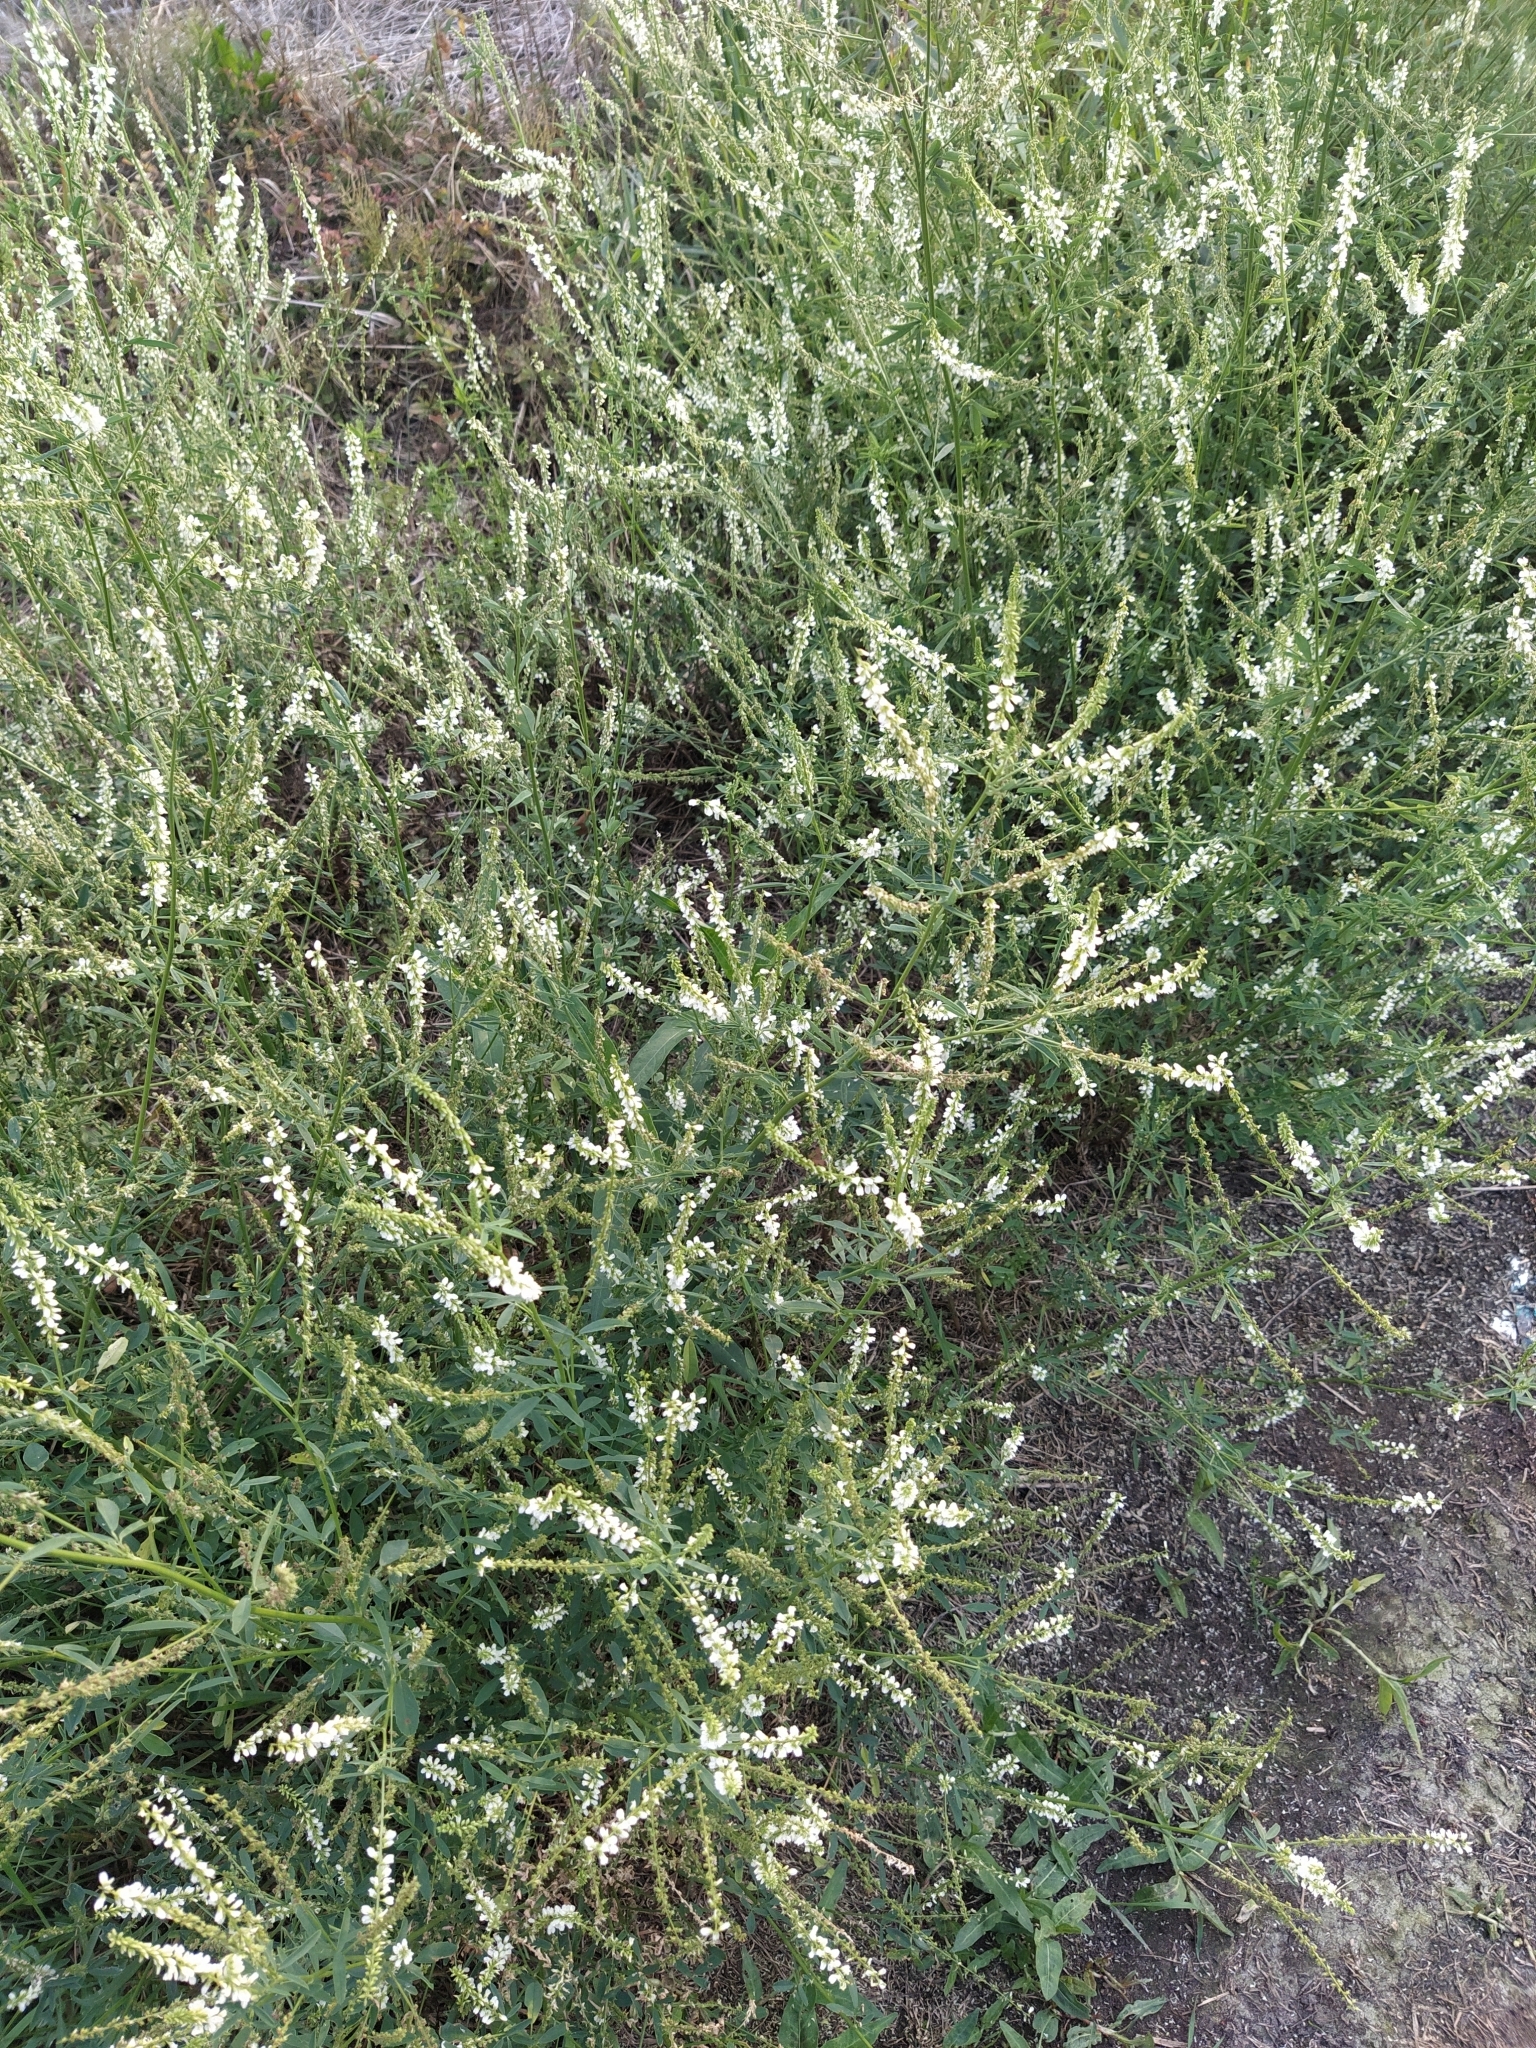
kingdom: Plantae
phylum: Tracheophyta
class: Magnoliopsida
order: Fabales
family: Fabaceae
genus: Melilotus
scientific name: Melilotus albus
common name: White melilot
